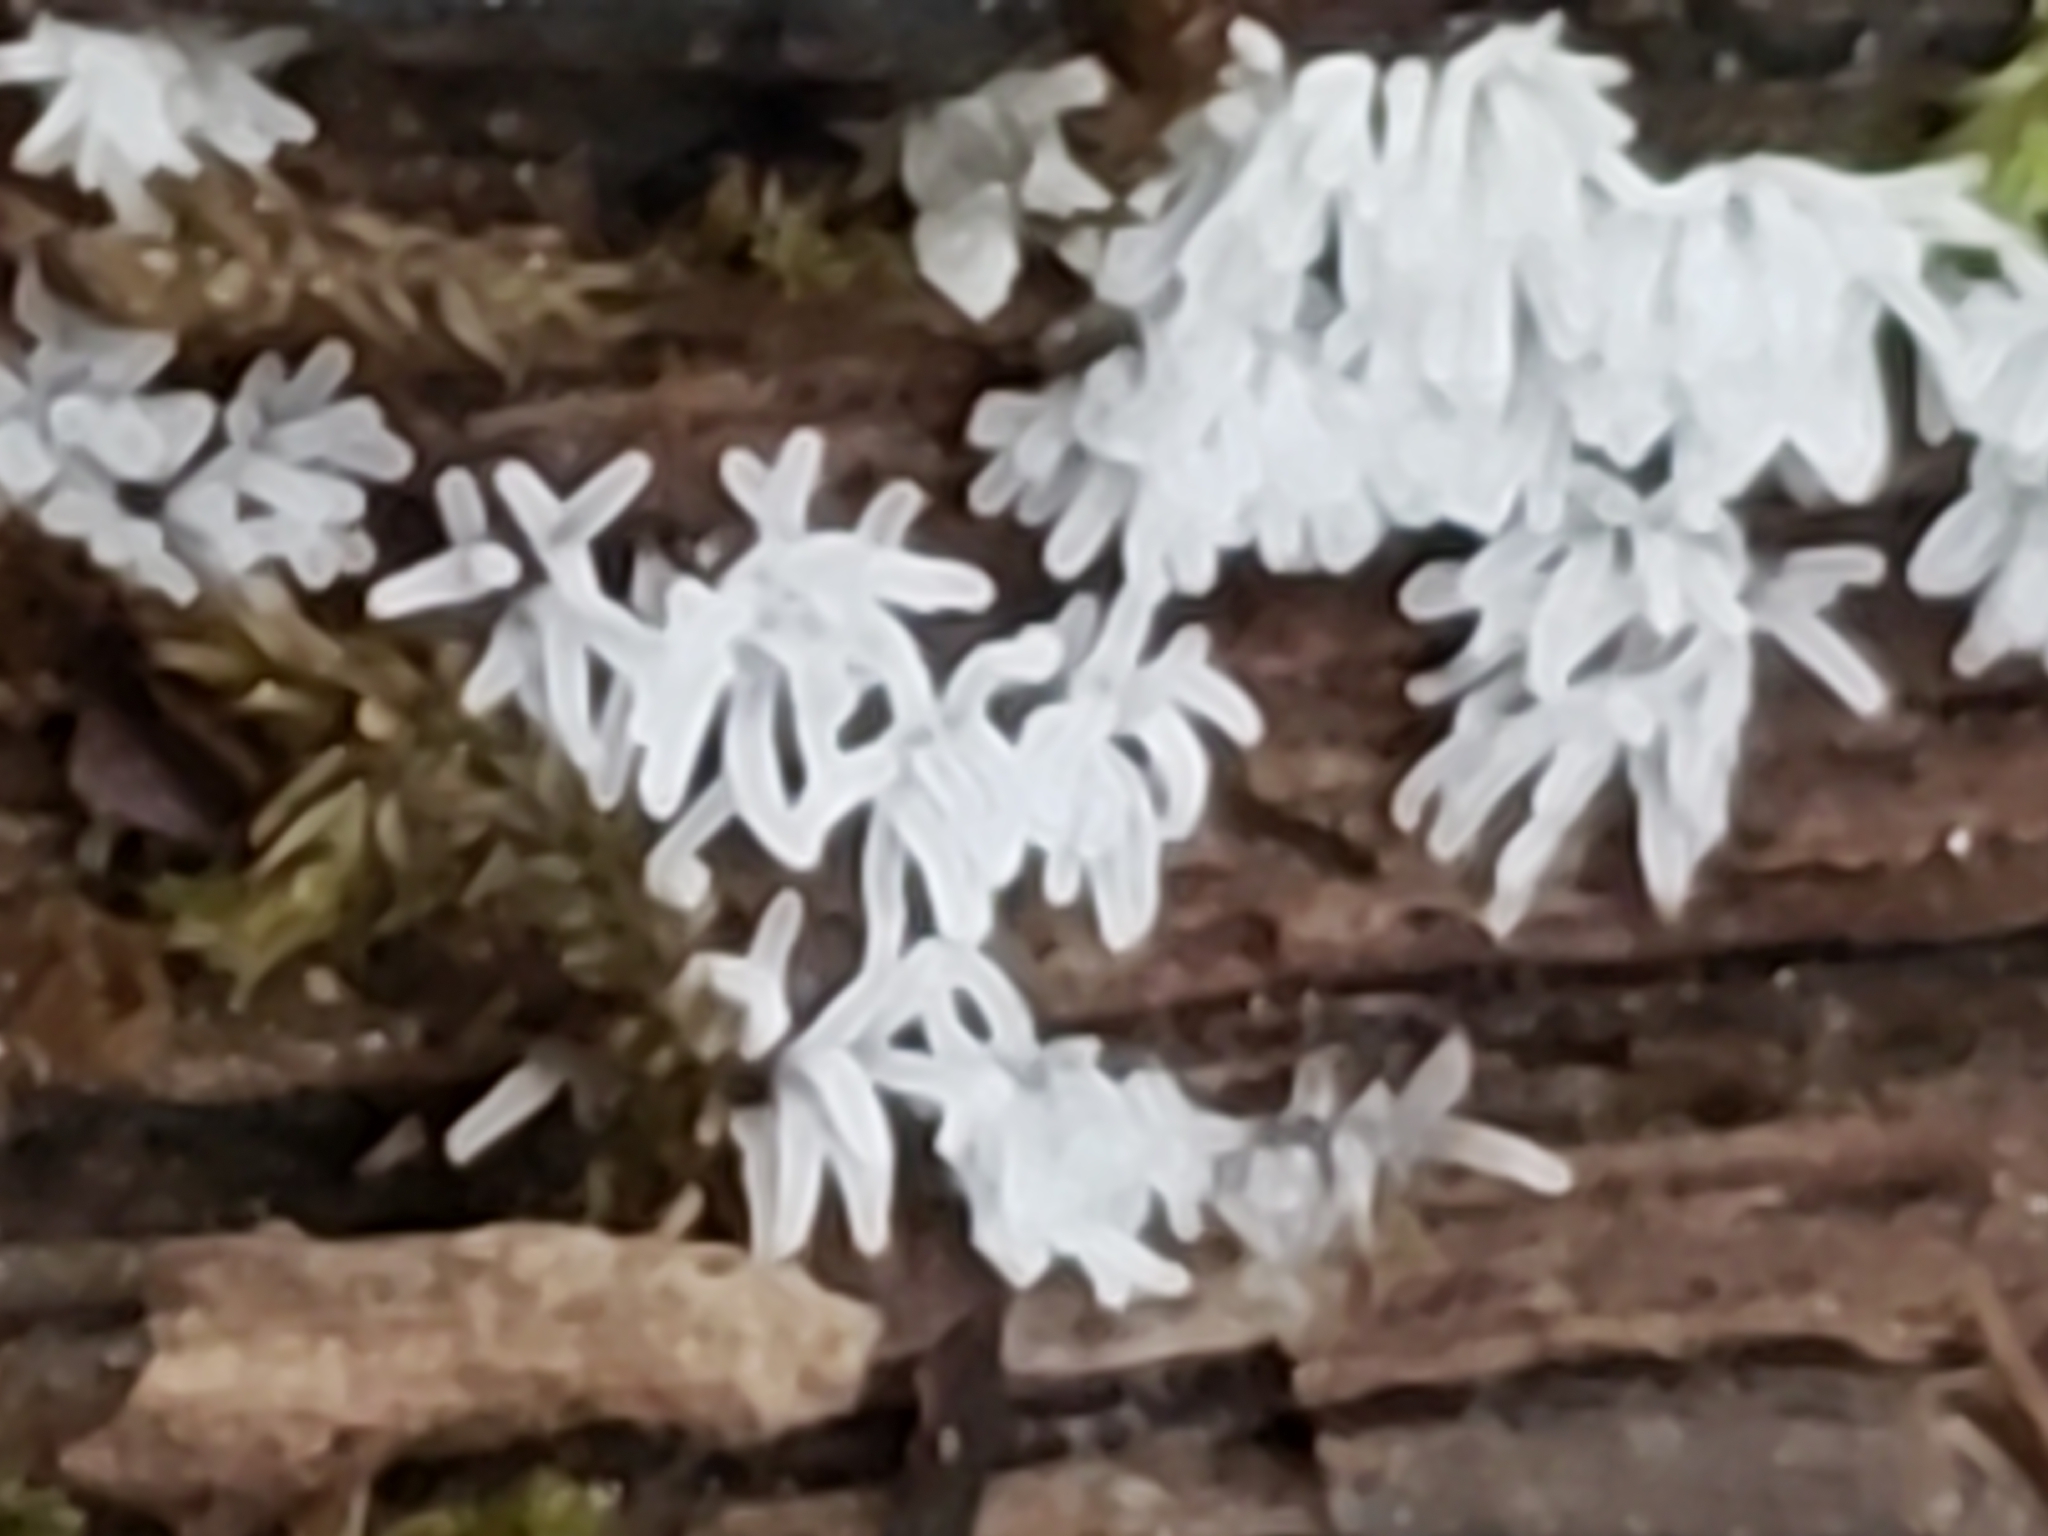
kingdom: Protozoa
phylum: Mycetozoa
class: Protosteliomycetes
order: Ceratiomyxales
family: Ceratiomyxaceae
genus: Ceratiomyxa
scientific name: Ceratiomyxa fruticulosa
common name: Honeycomb coral slime mold
